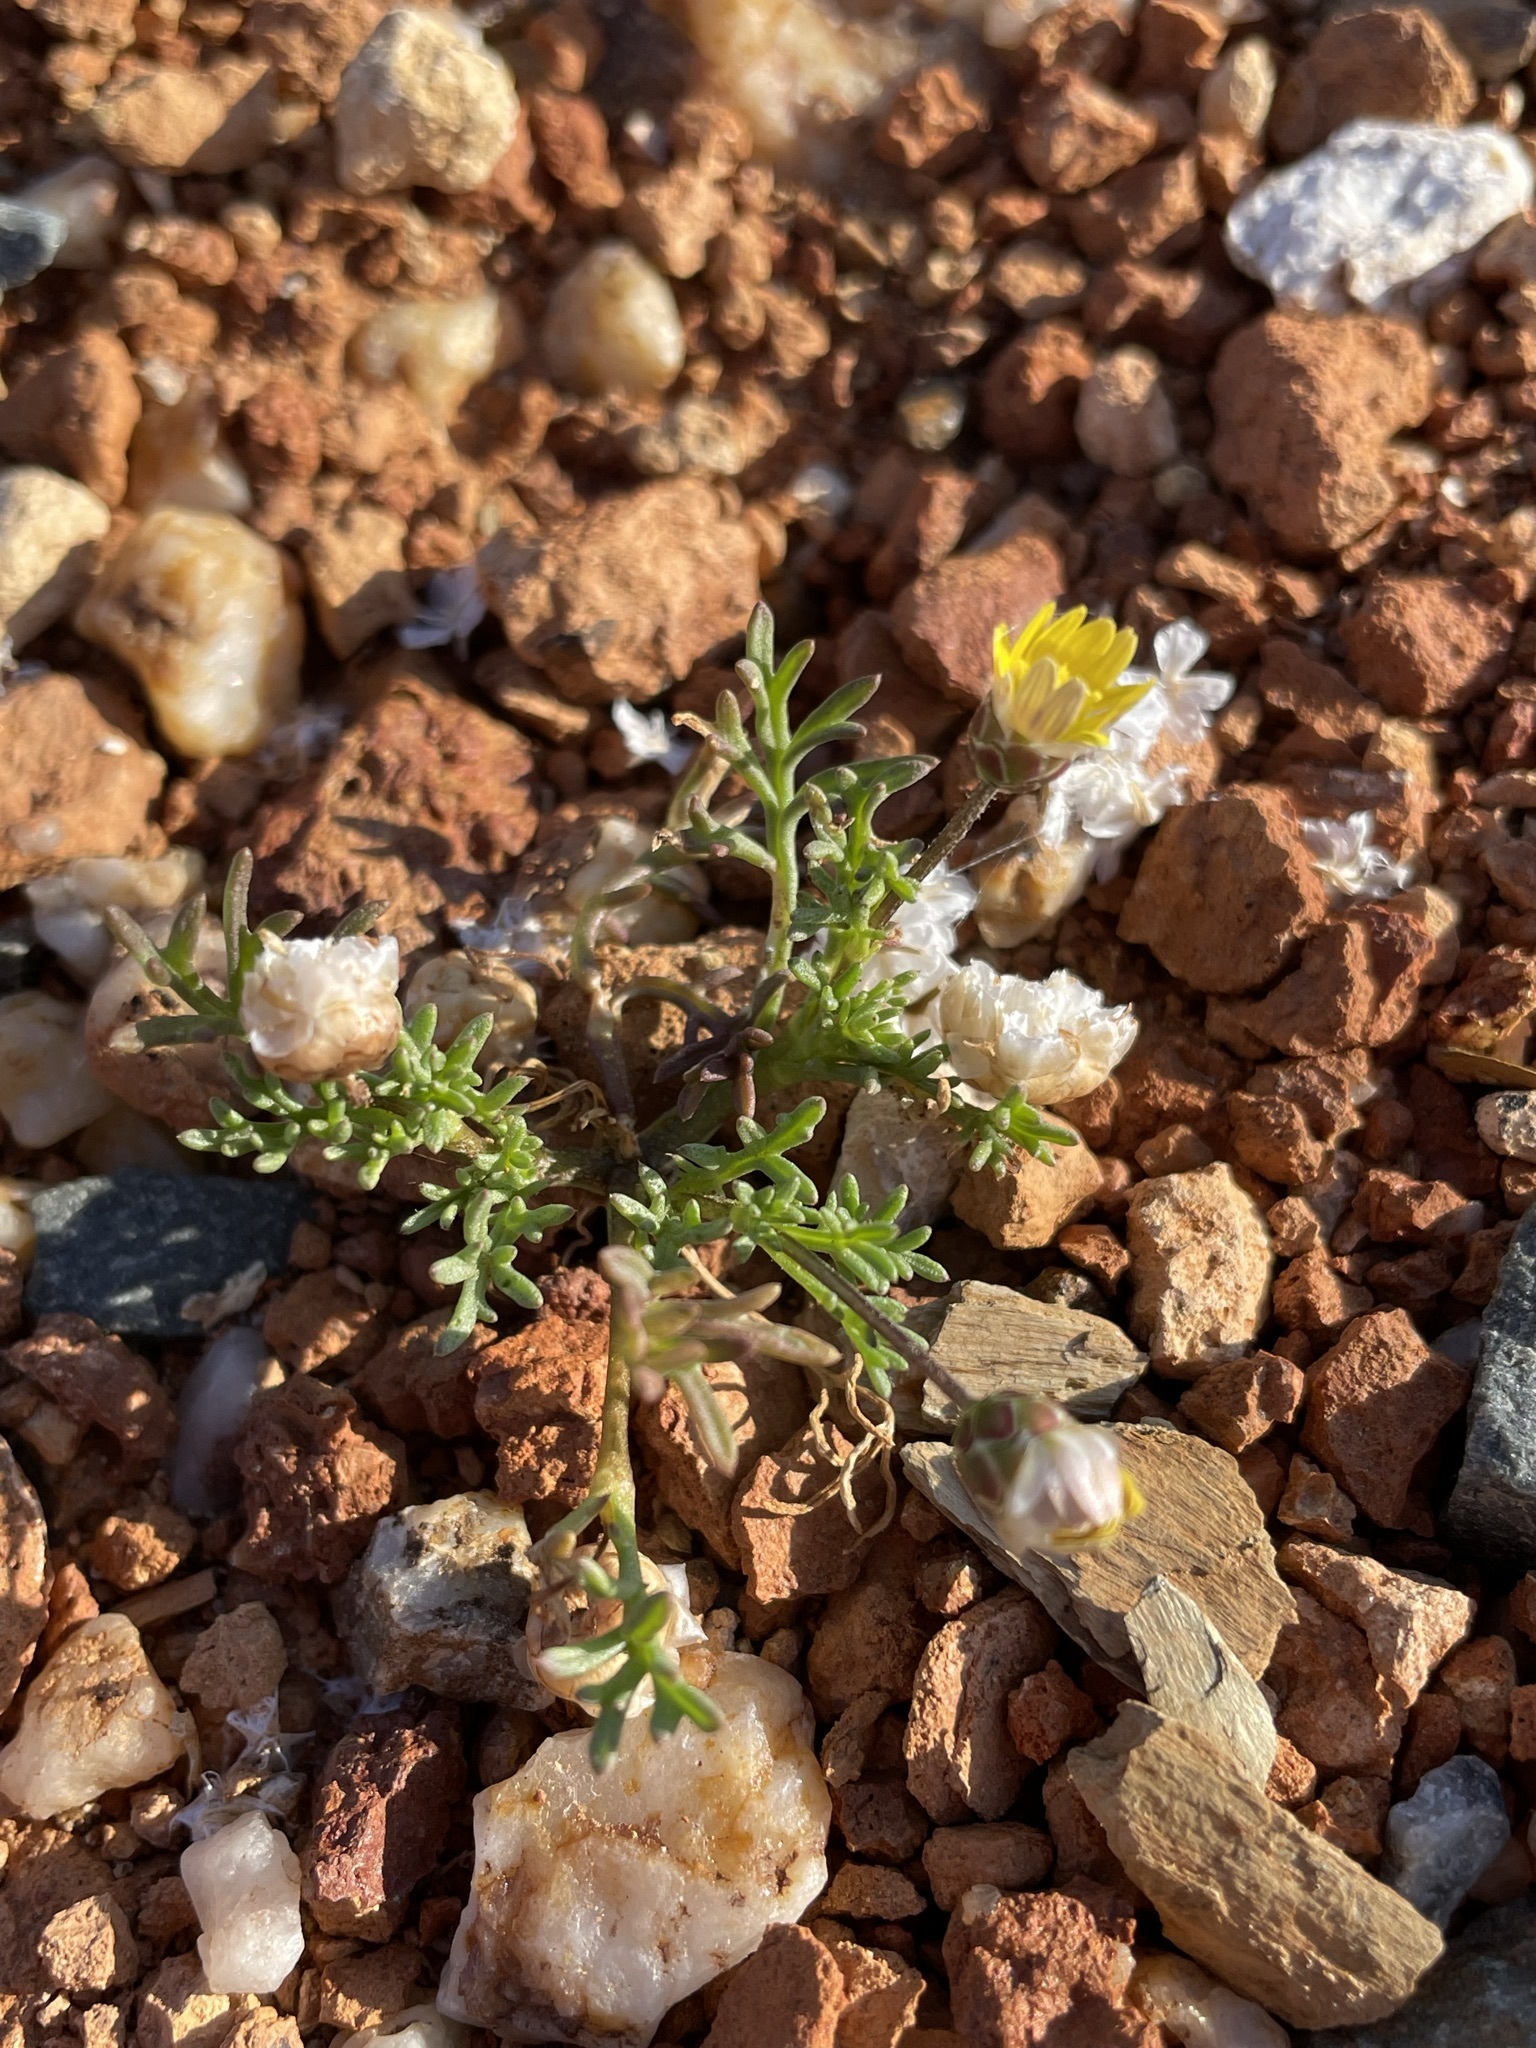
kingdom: Plantae
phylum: Tracheophyta
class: Magnoliopsida
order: Asterales
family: Asteraceae
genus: Ursinia
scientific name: Ursinia nana
